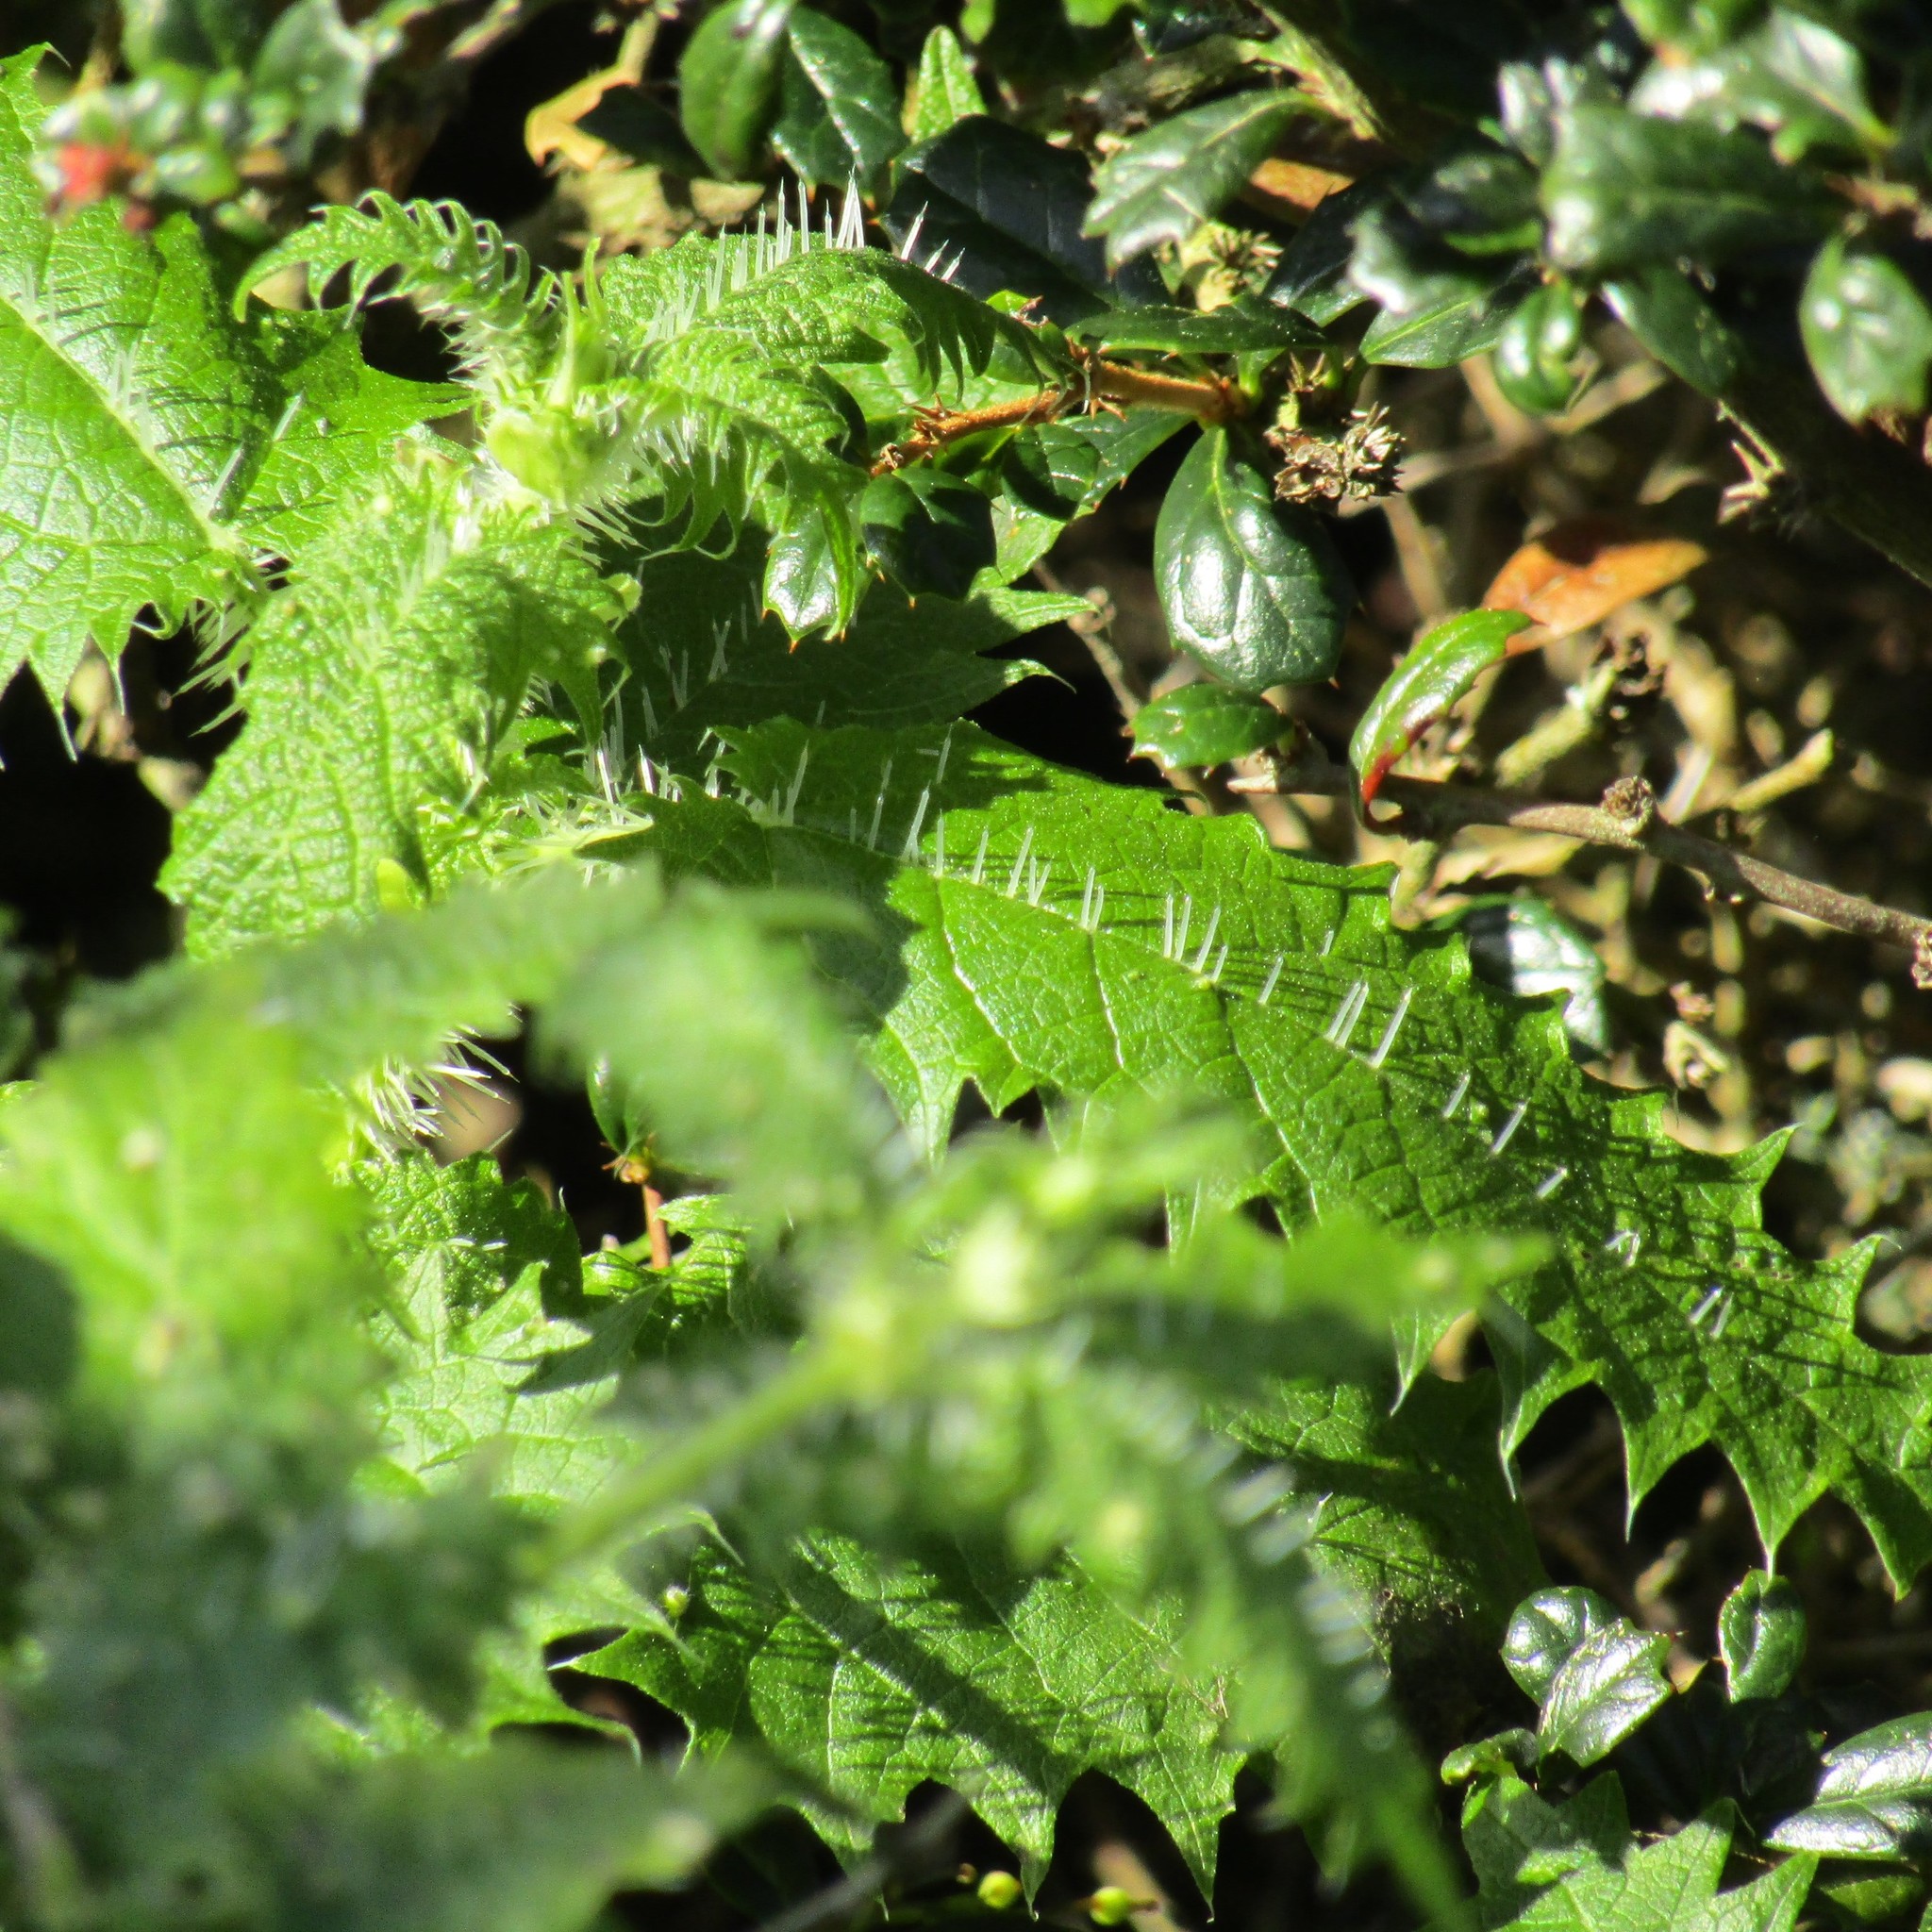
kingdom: Plantae
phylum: Tracheophyta
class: Magnoliopsida
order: Rosales
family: Urticaceae
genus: Urtica
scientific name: Urtica ferox
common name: Tree nettle
